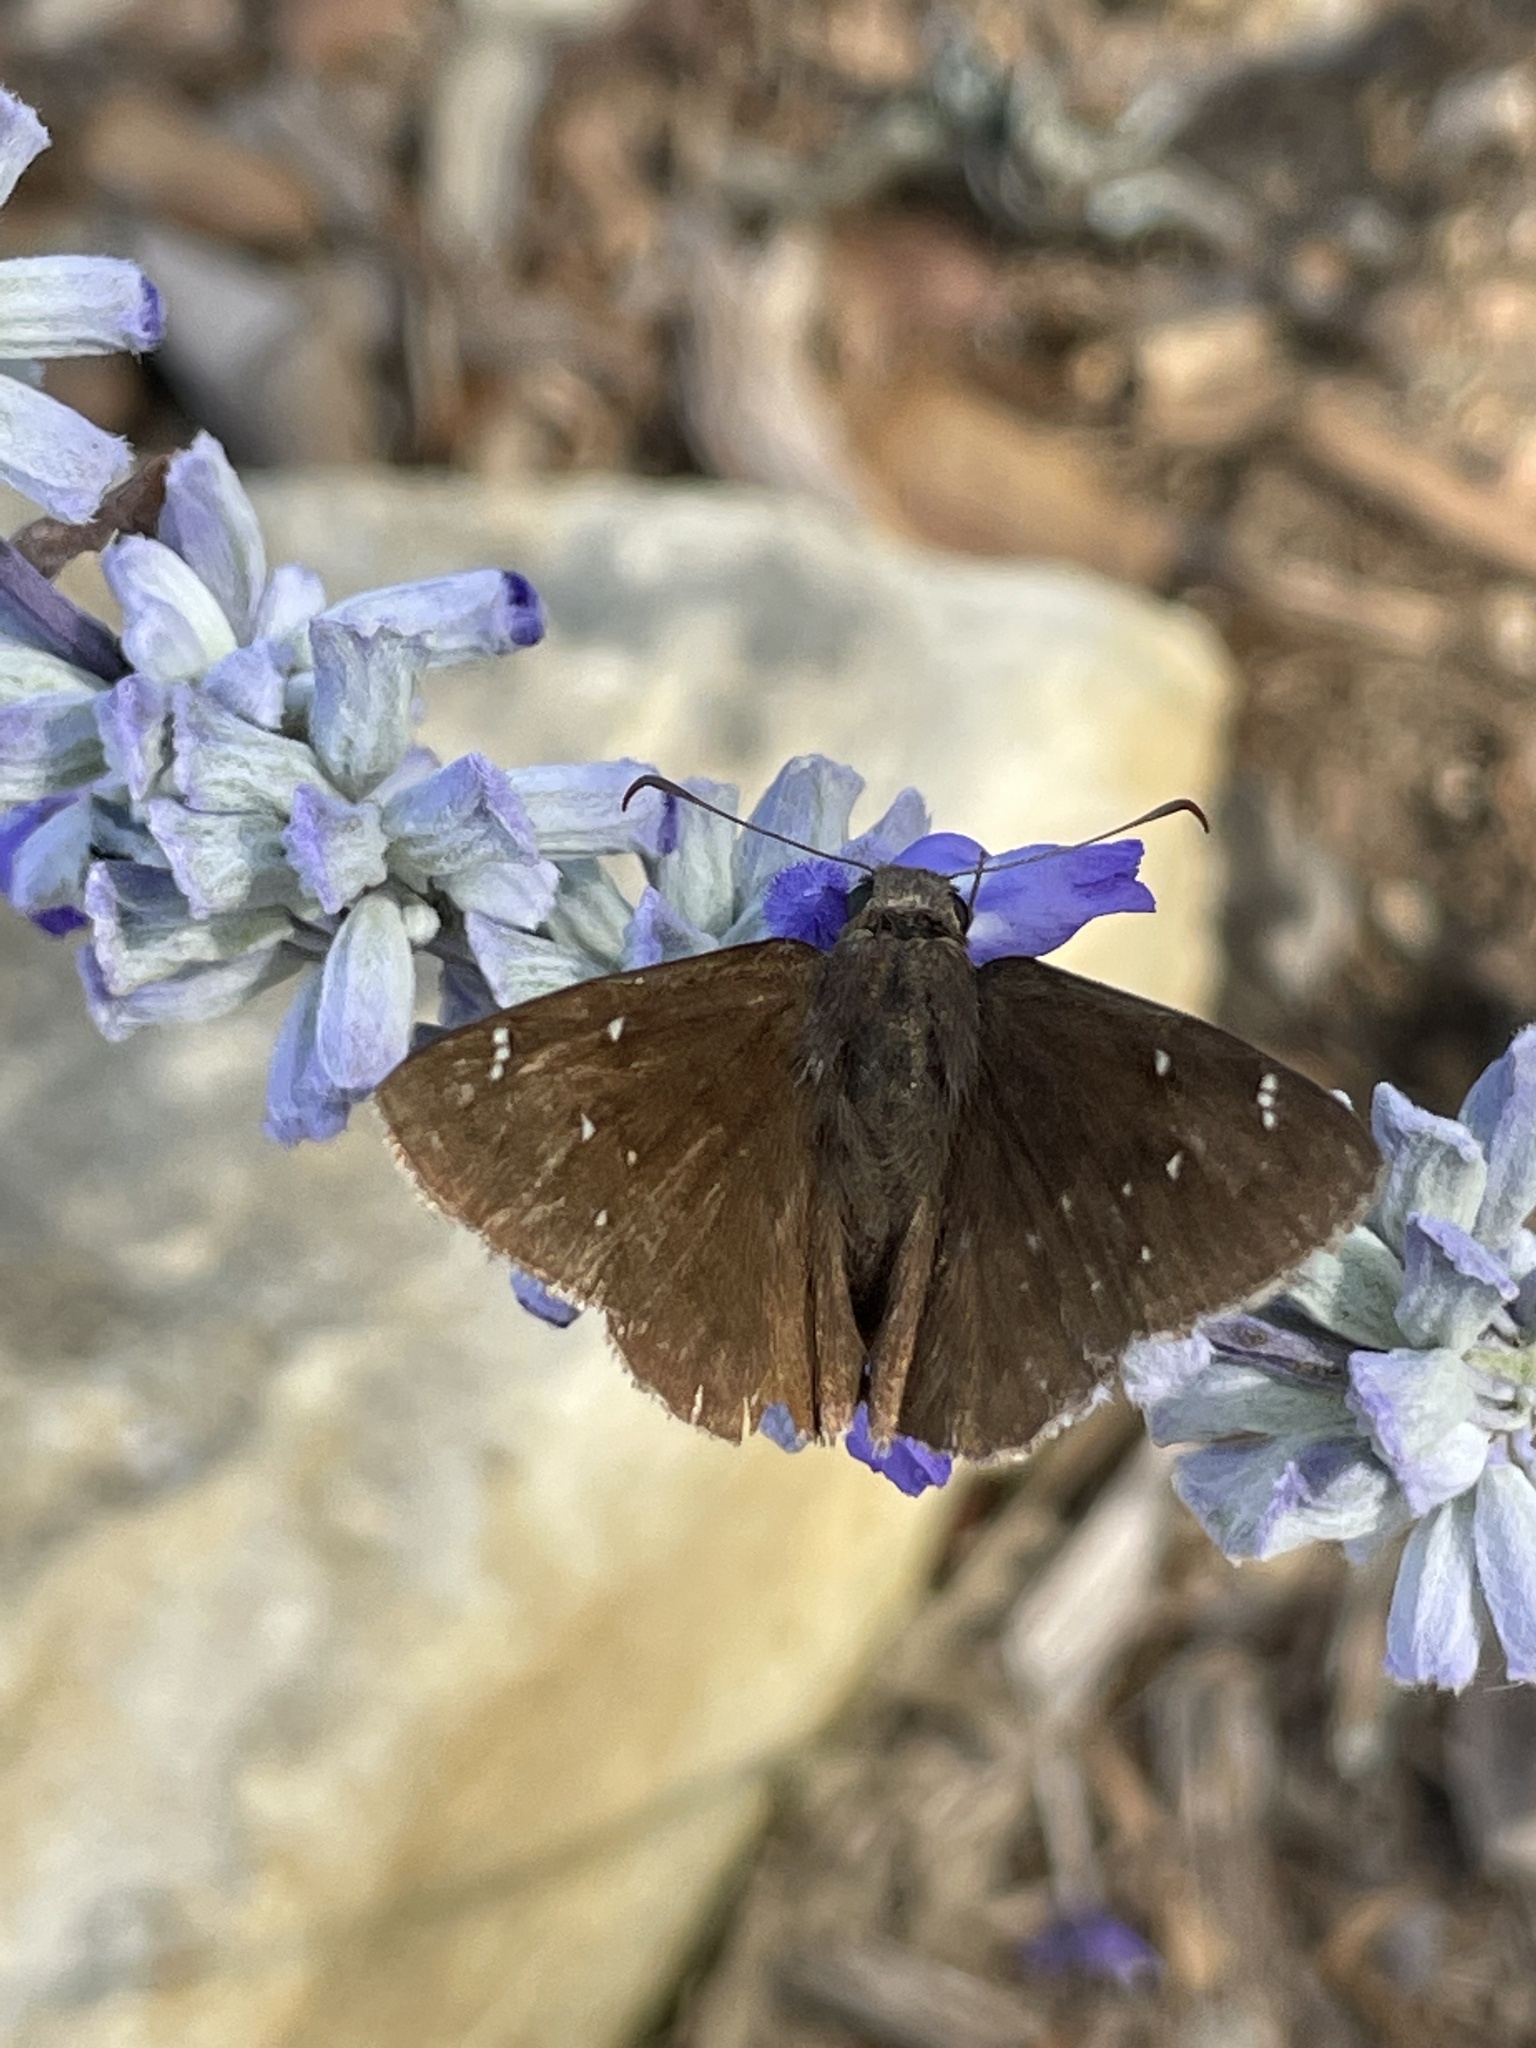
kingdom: Animalia
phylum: Arthropoda
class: Insecta
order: Lepidoptera
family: Hesperiidae
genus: Thorybes
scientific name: Thorybes pylades
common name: Northern cloudywing
